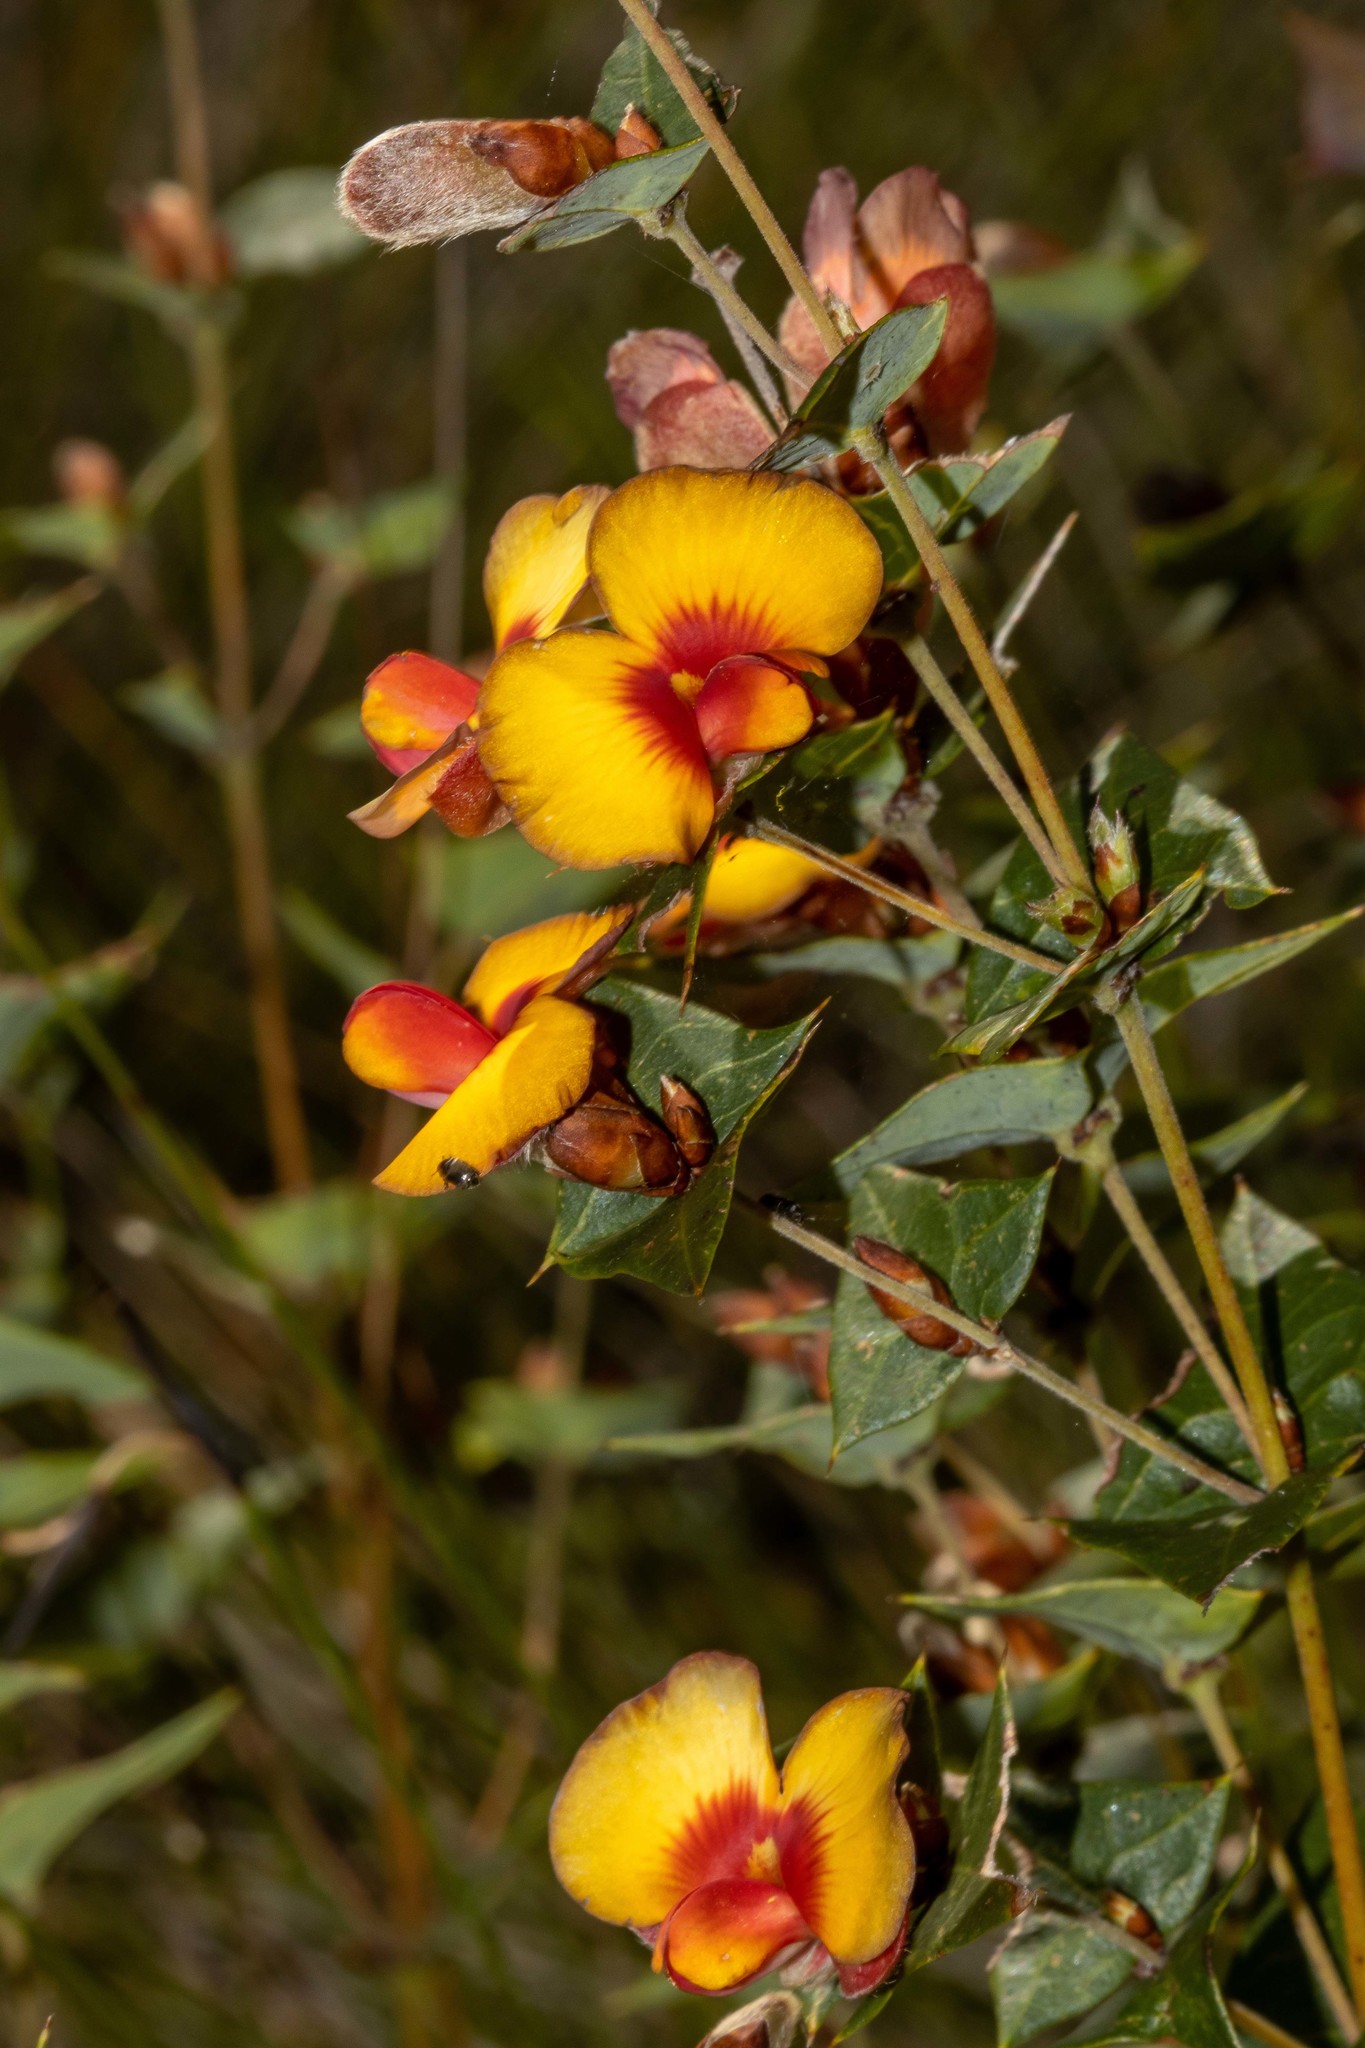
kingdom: Plantae
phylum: Tracheophyta
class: Magnoliopsida
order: Fabales
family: Fabaceae
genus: Platylobium
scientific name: Platylobium obtusangulum
